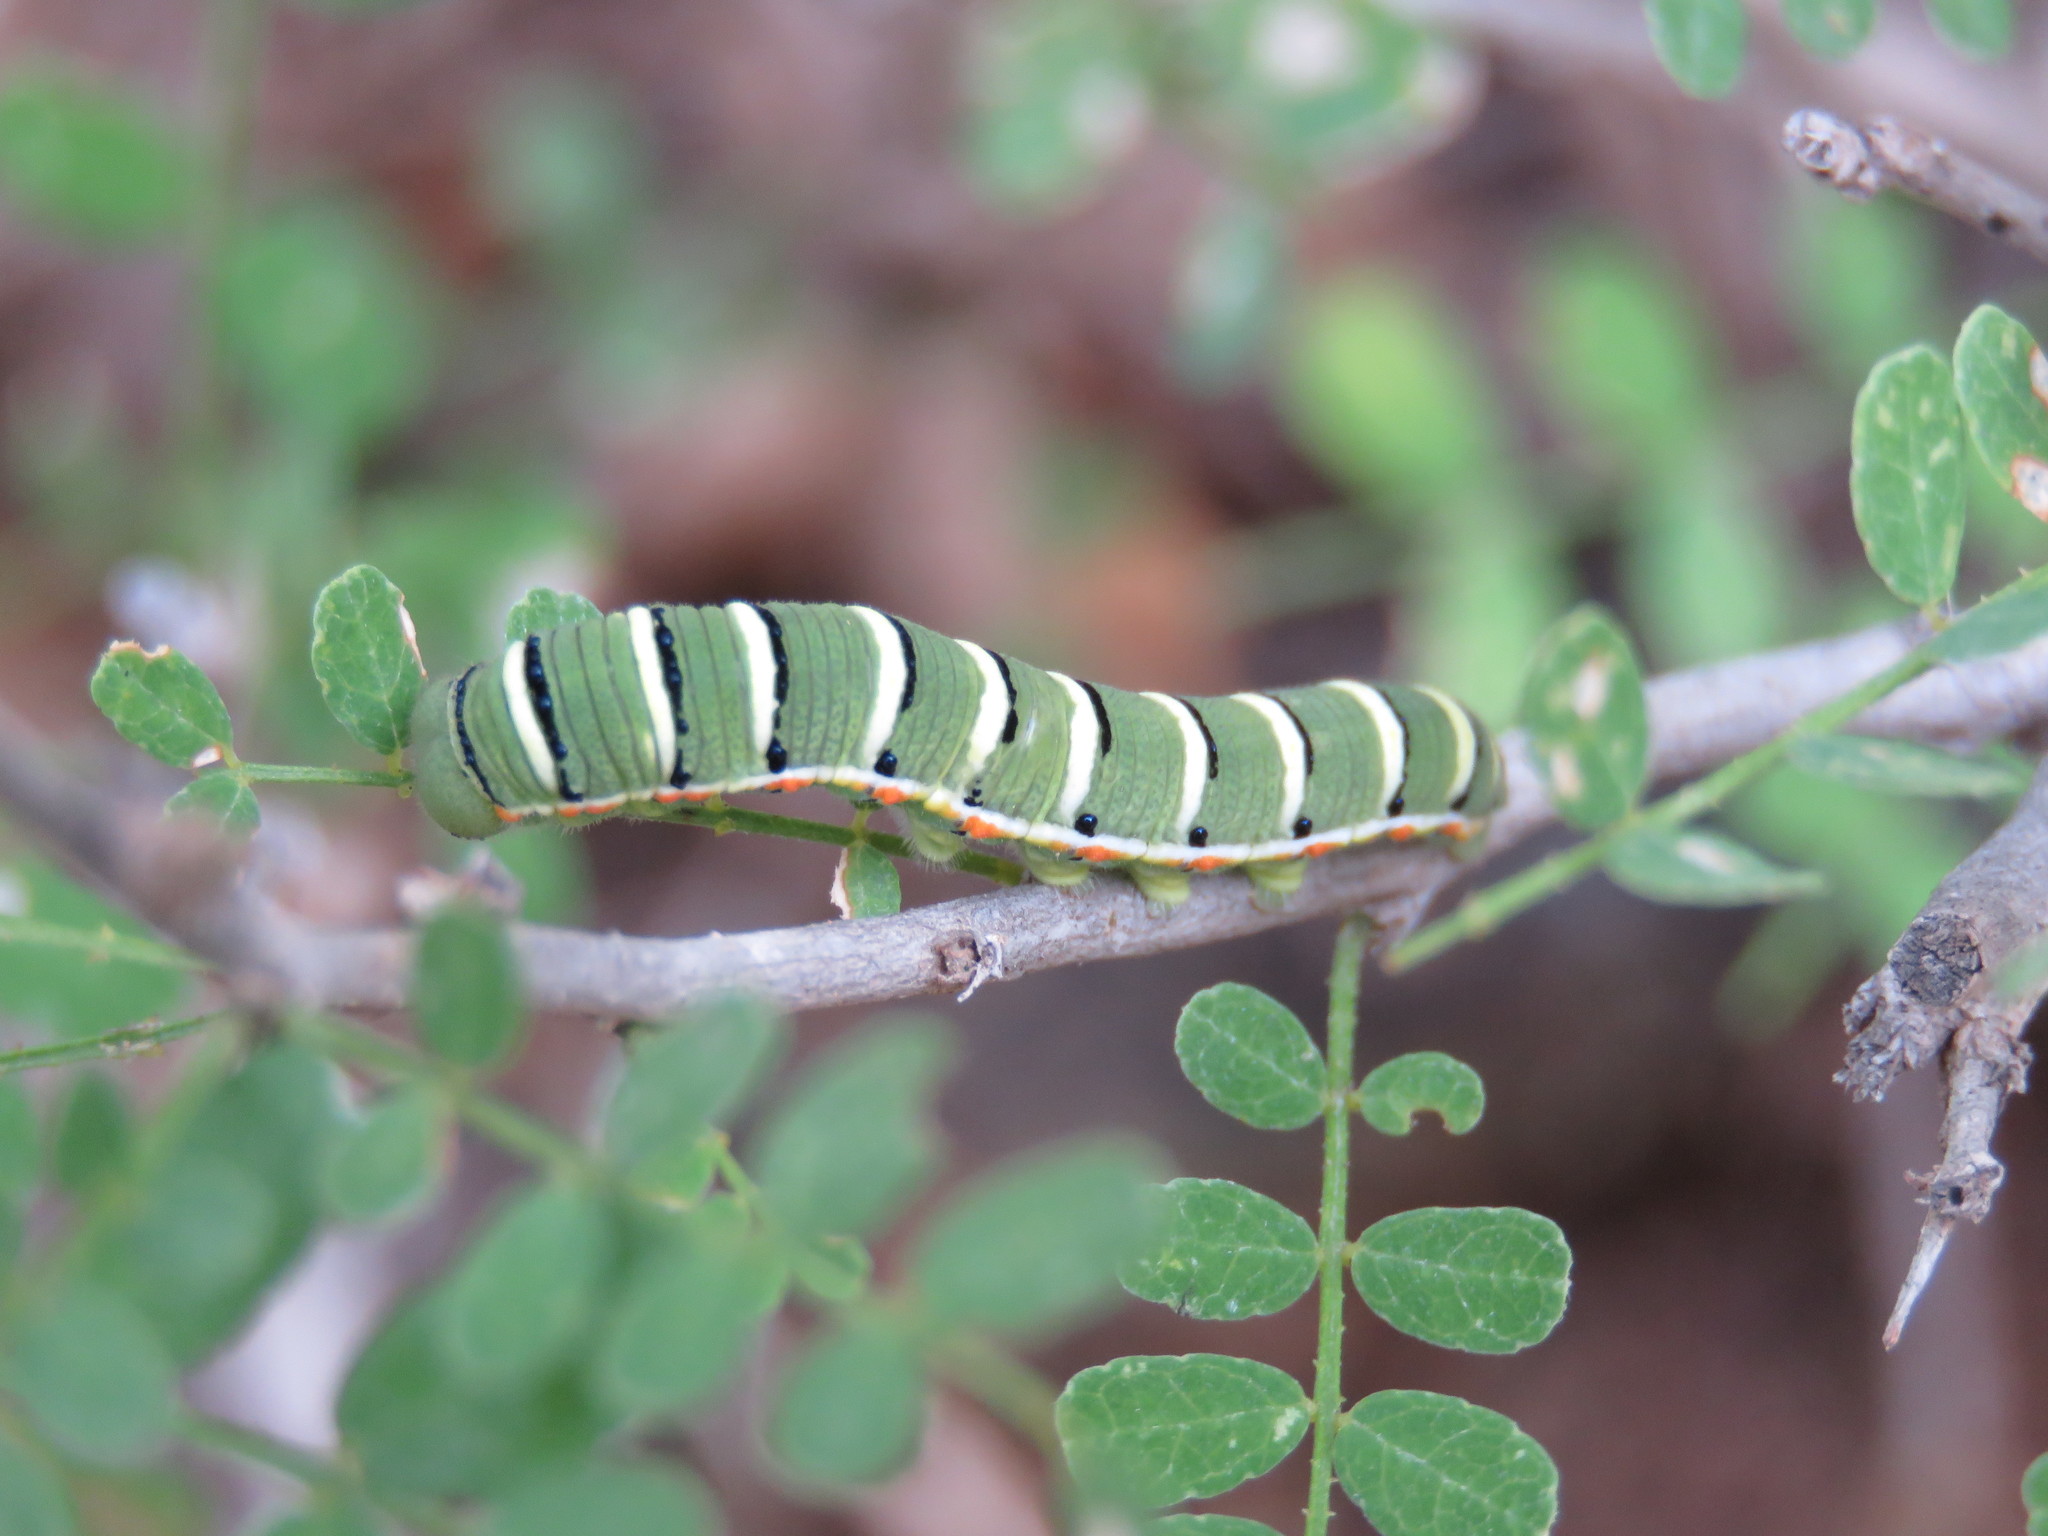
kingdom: Animalia
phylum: Arthropoda
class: Insecta
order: Lepidoptera
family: Pieridae
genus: Zerene
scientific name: Zerene cesonia
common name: Southern dogface
